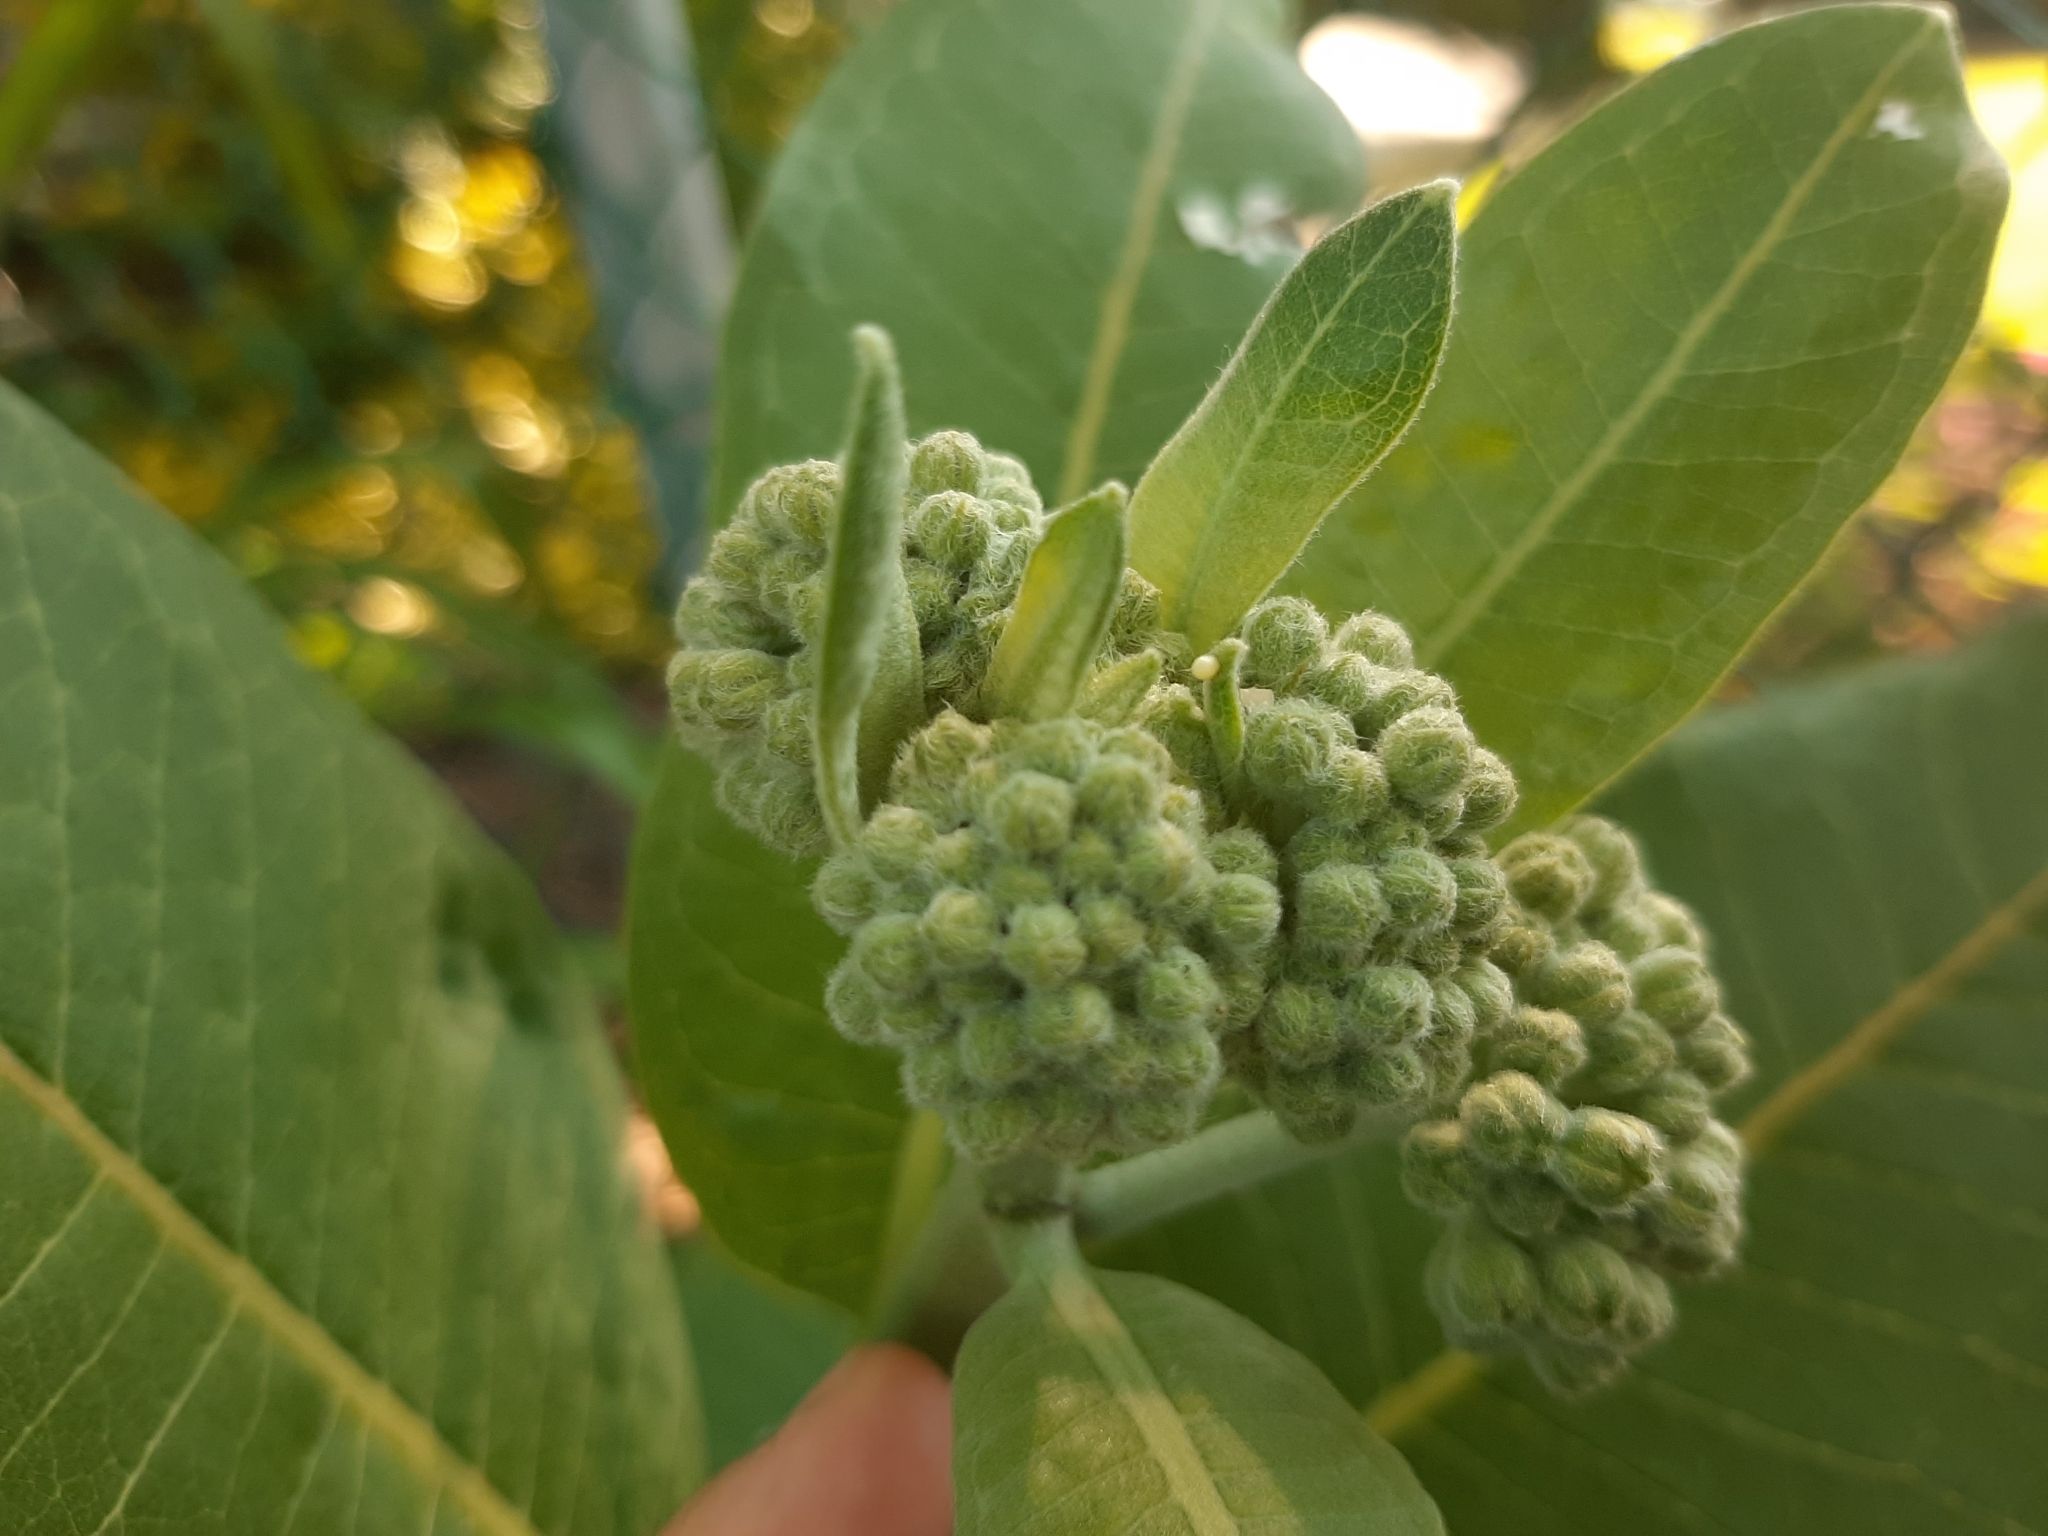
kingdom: Animalia
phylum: Arthropoda
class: Insecta
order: Lepidoptera
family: Nymphalidae
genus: Danaus
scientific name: Danaus plexippus
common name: Monarch
